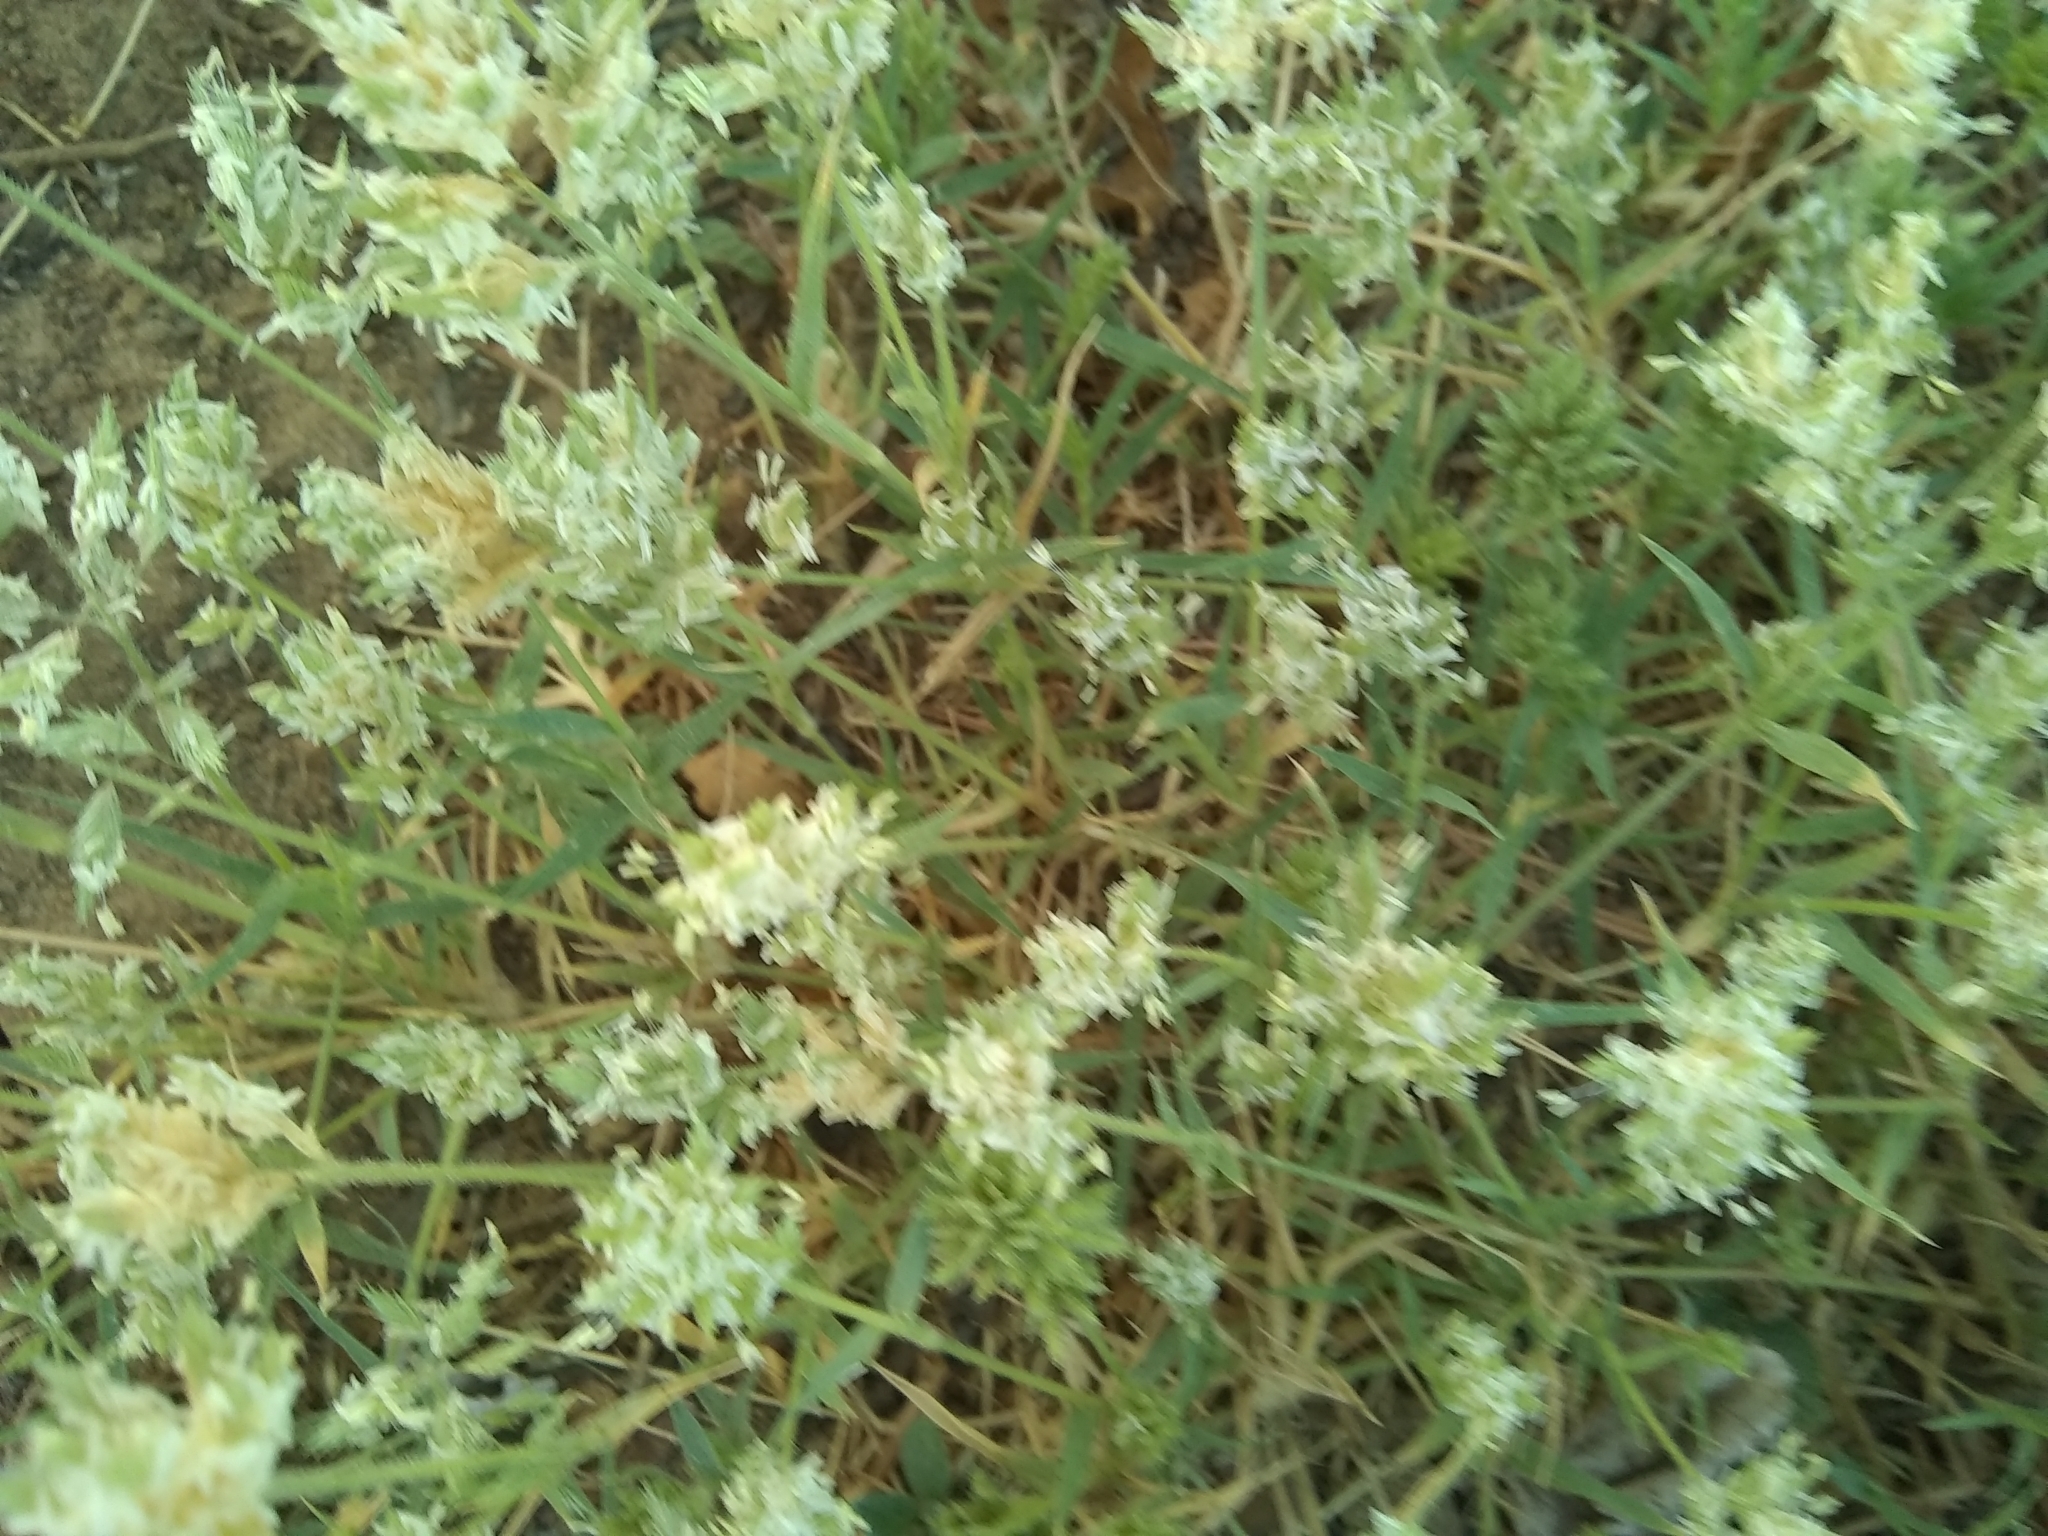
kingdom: Plantae
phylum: Tracheophyta
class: Liliopsida
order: Poales
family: Poaceae
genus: Eragrostis
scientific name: Eragrostis reptans
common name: Creeping love grass
